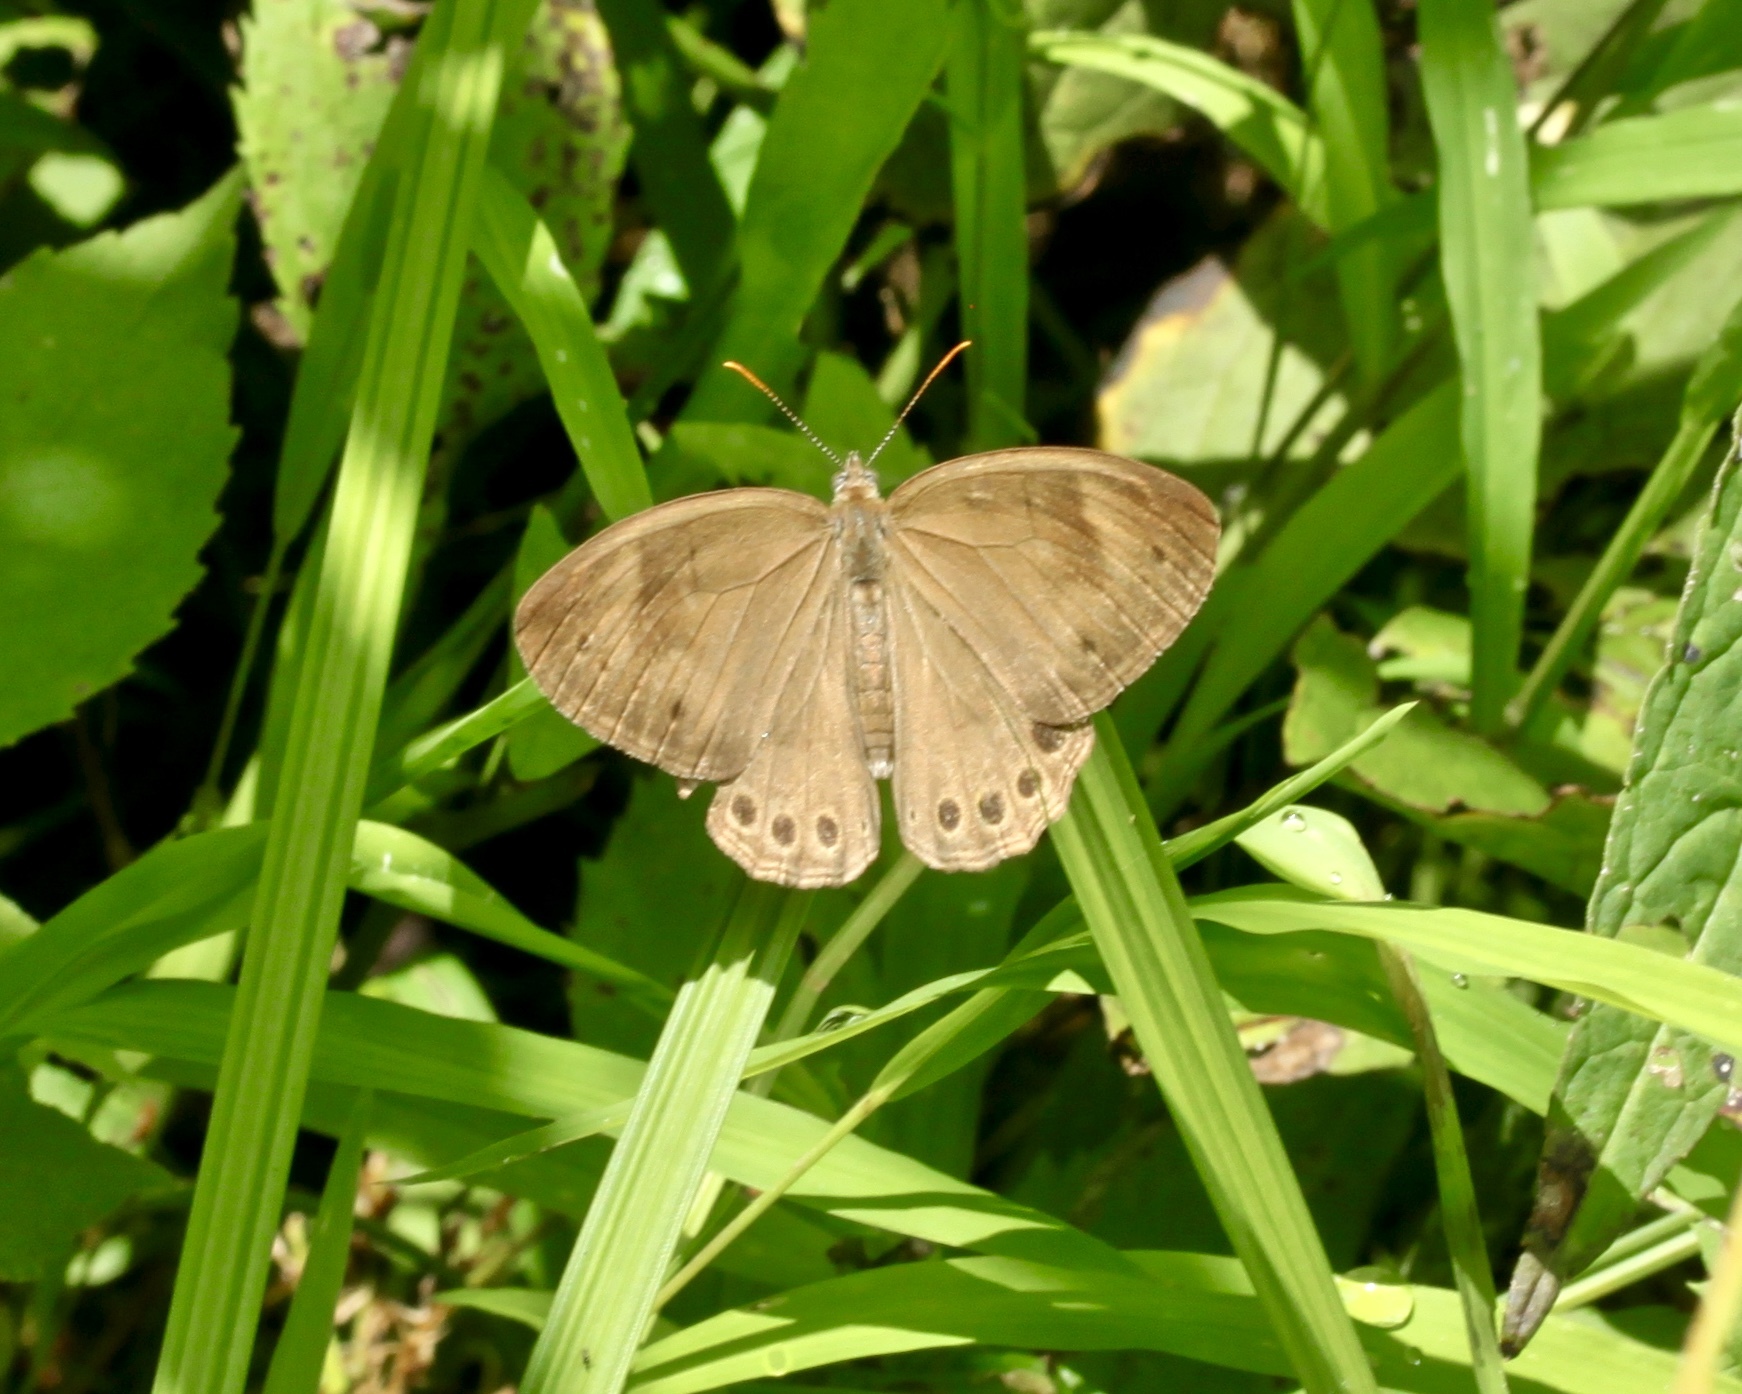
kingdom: Animalia
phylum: Arthropoda
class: Insecta
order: Lepidoptera
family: Nymphalidae
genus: Lethe
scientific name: Lethe eurydice
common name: Eyed brown
